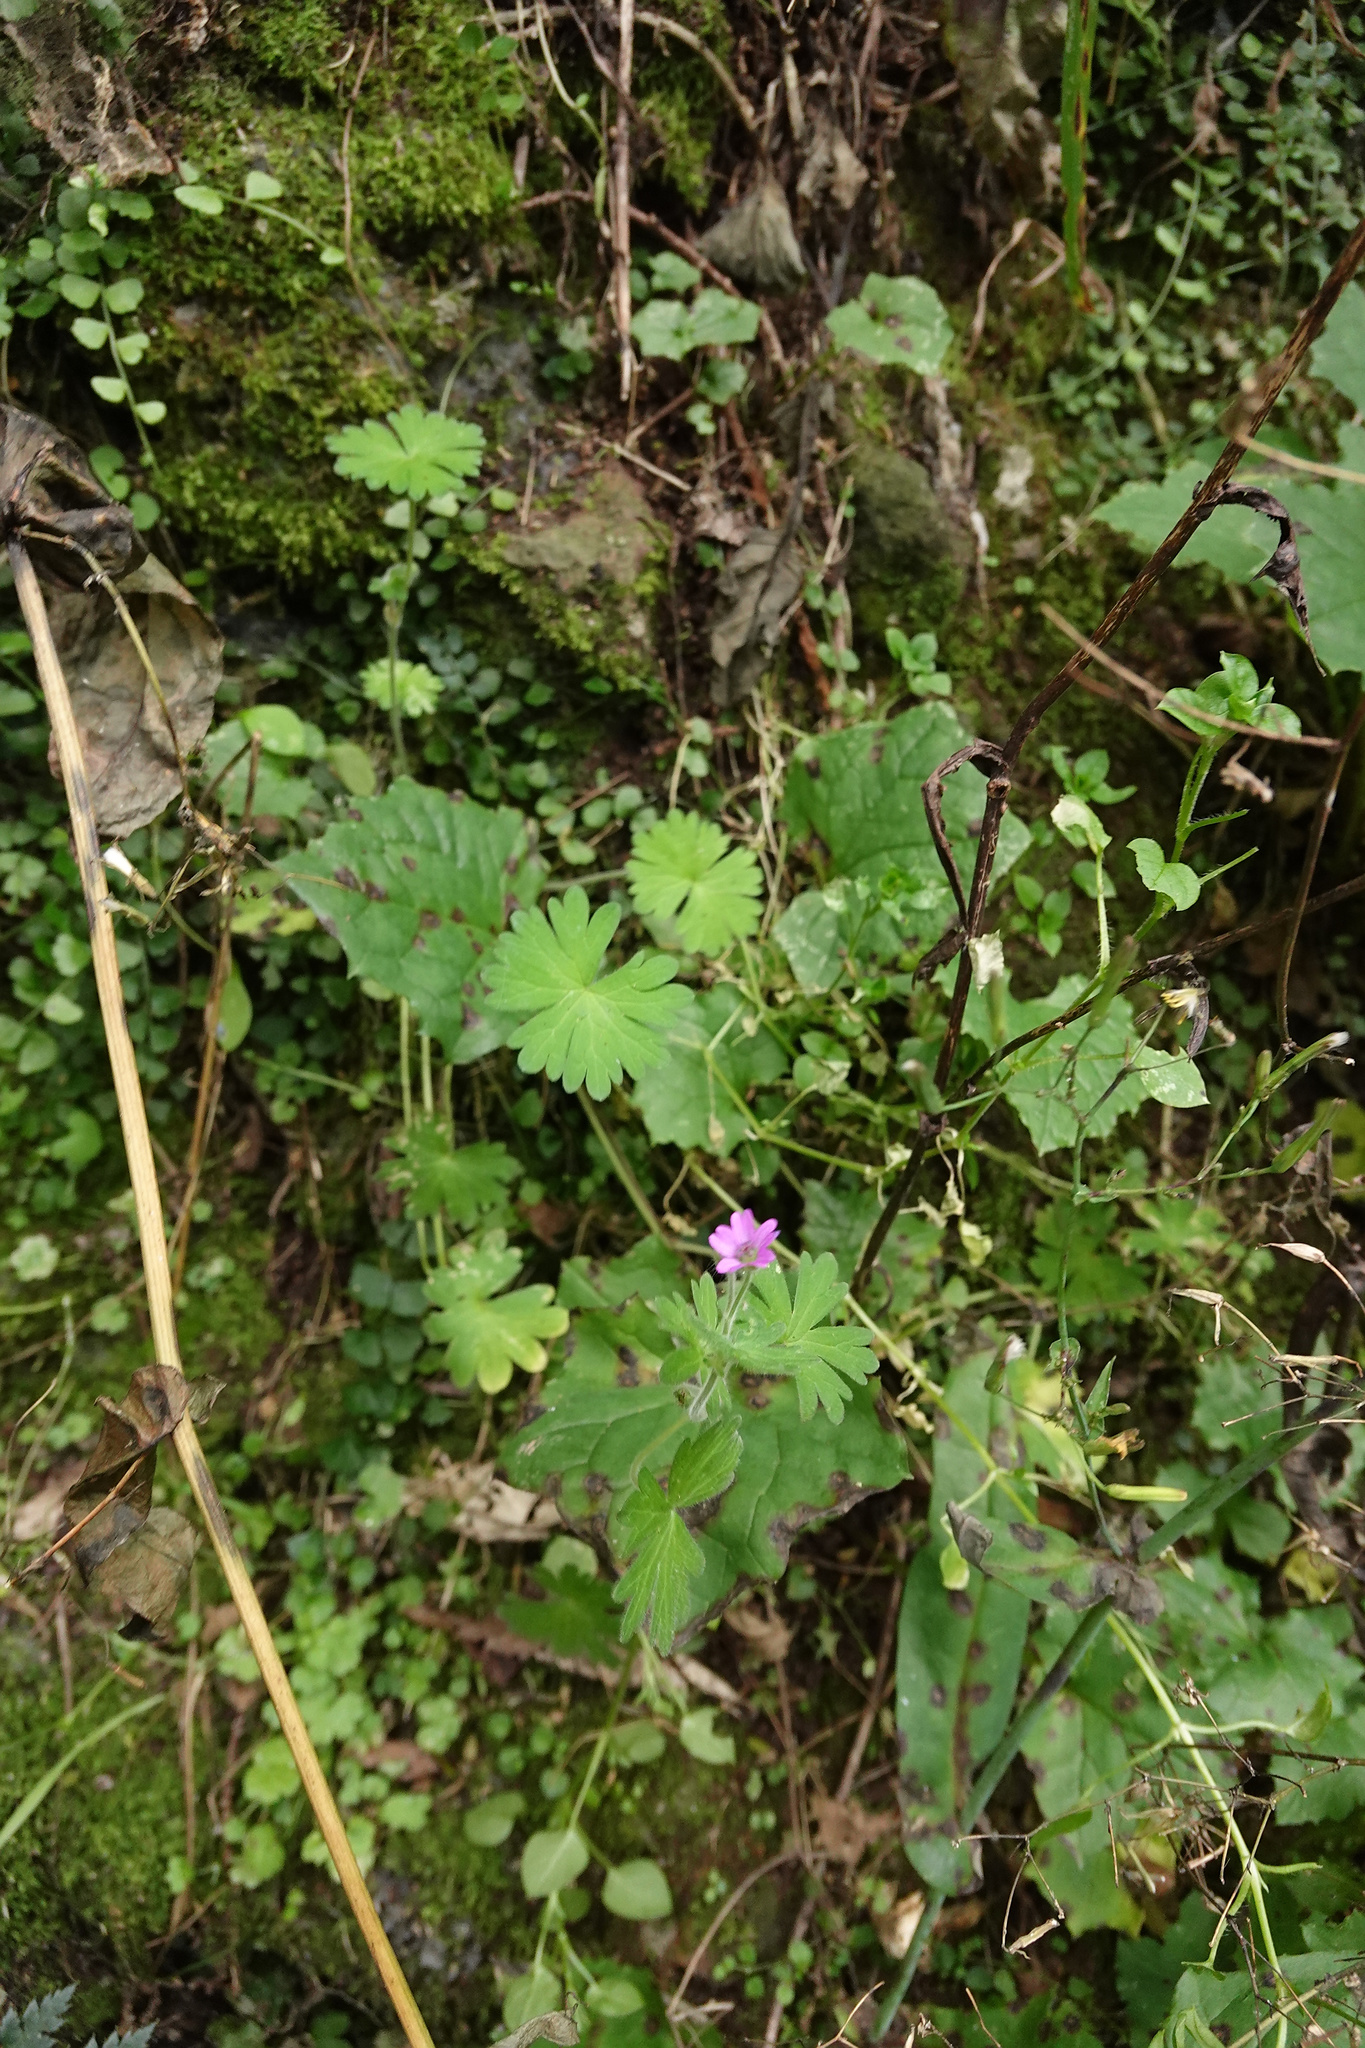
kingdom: Plantae
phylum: Tracheophyta
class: Magnoliopsida
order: Geraniales
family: Geraniaceae
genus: Geranium
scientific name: Geranium molle
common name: Dove's-foot crane's-bill
